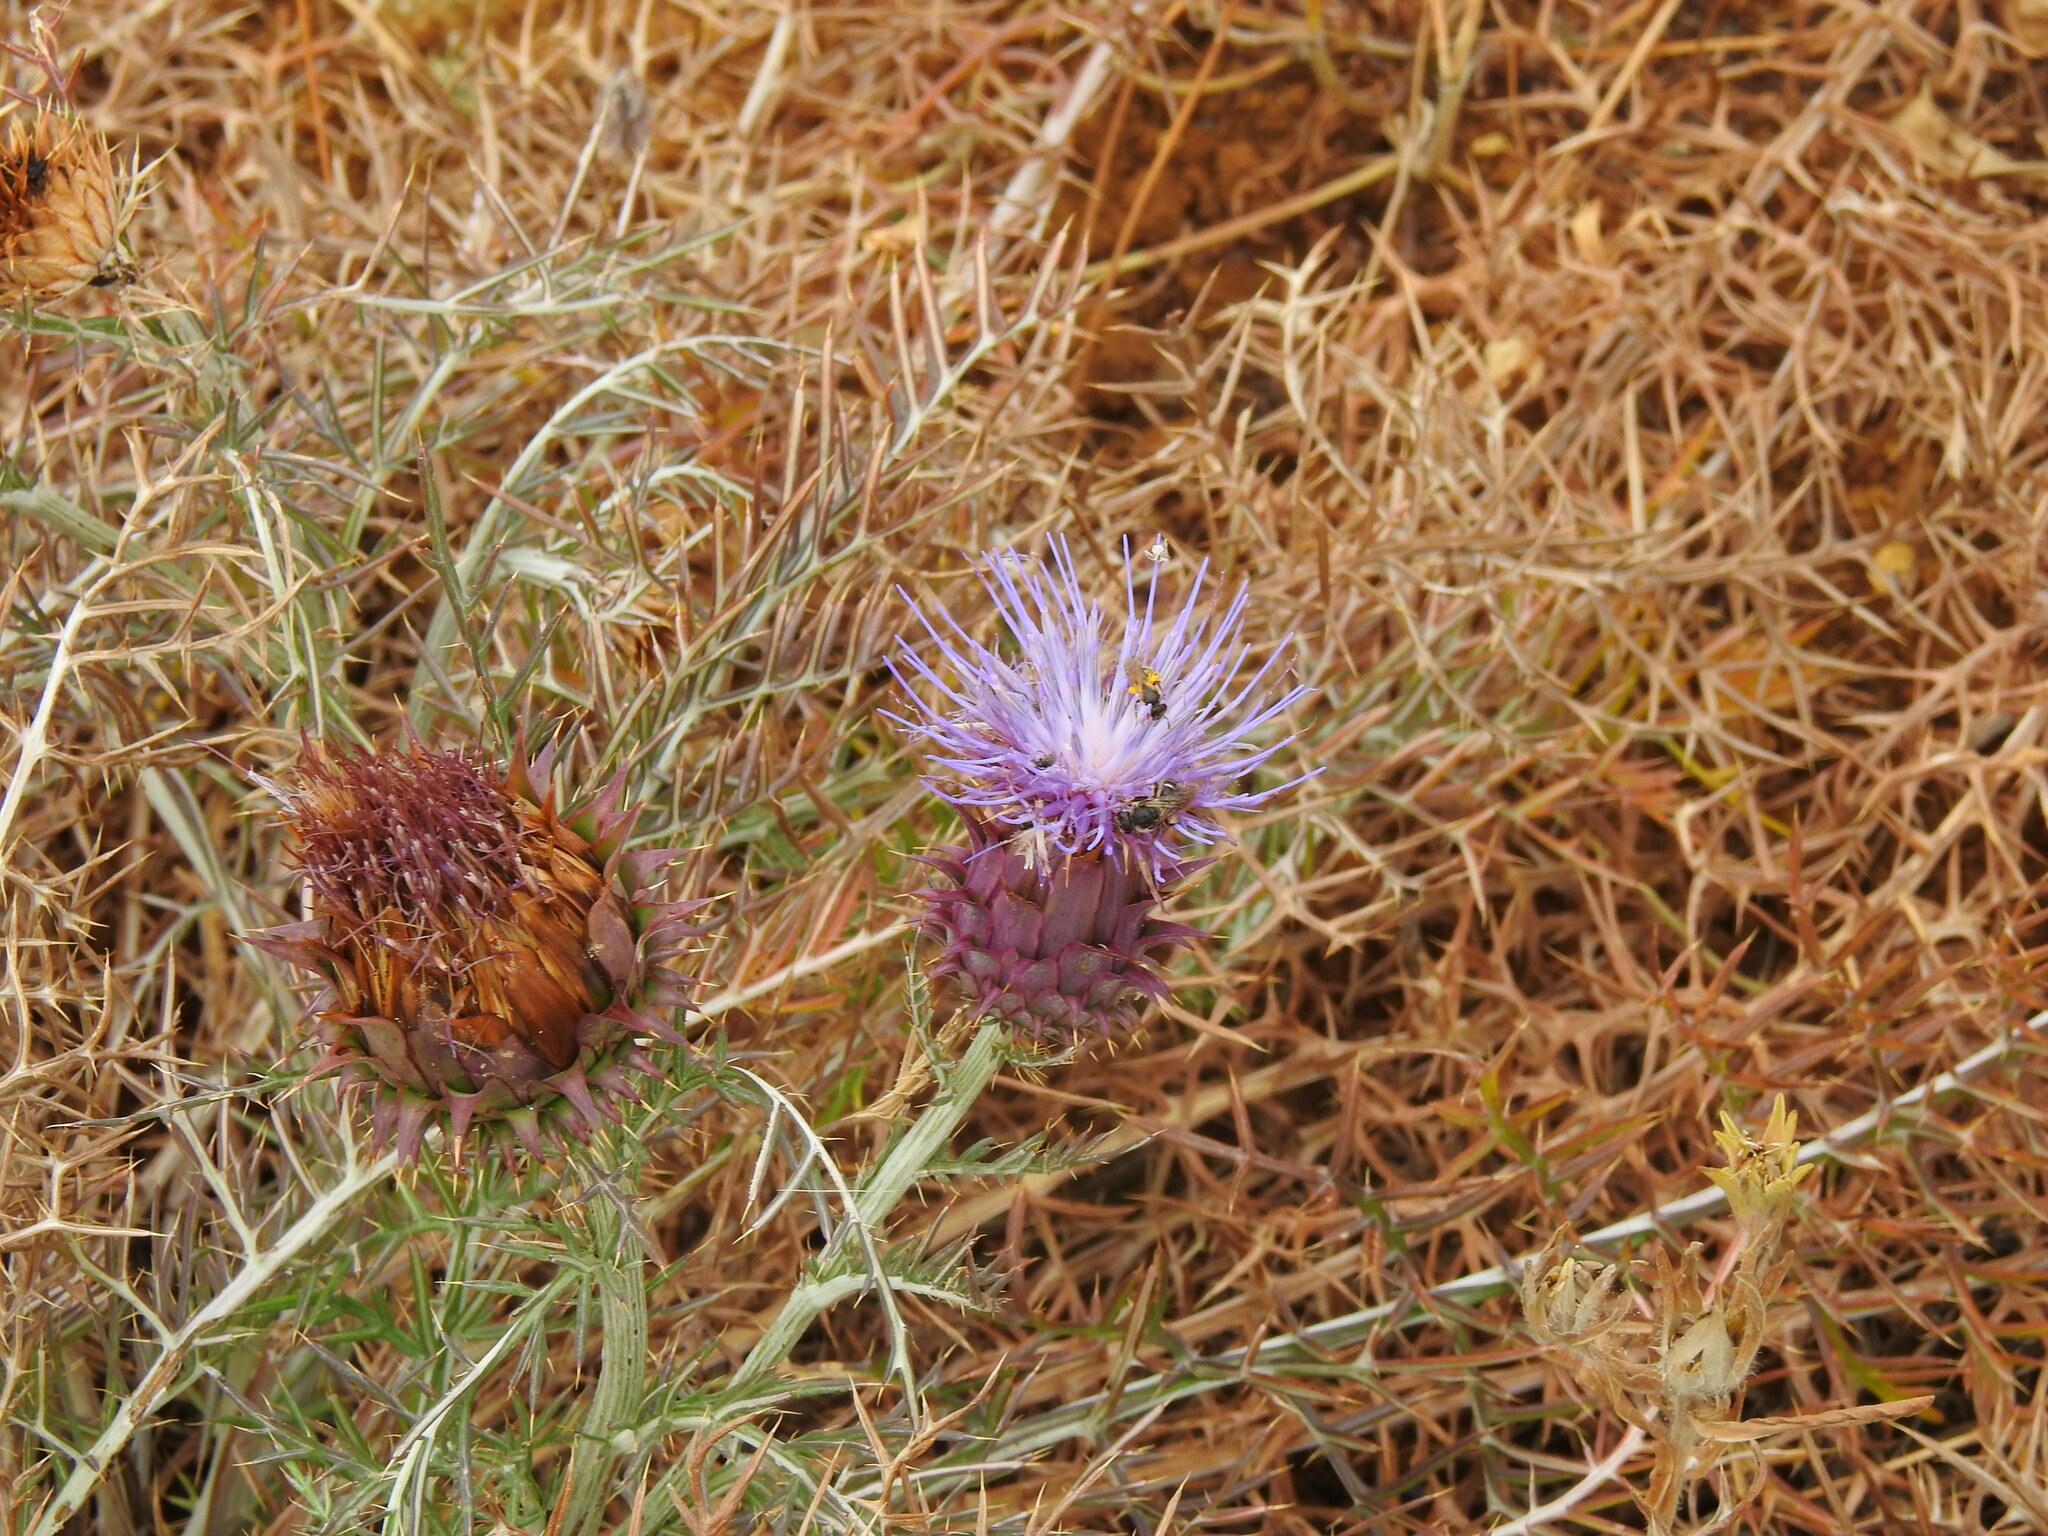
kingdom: Plantae
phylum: Tracheophyta
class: Magnoliopsida
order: Asterales
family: Asteraceae
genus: Cynara
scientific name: Cynara humilis
